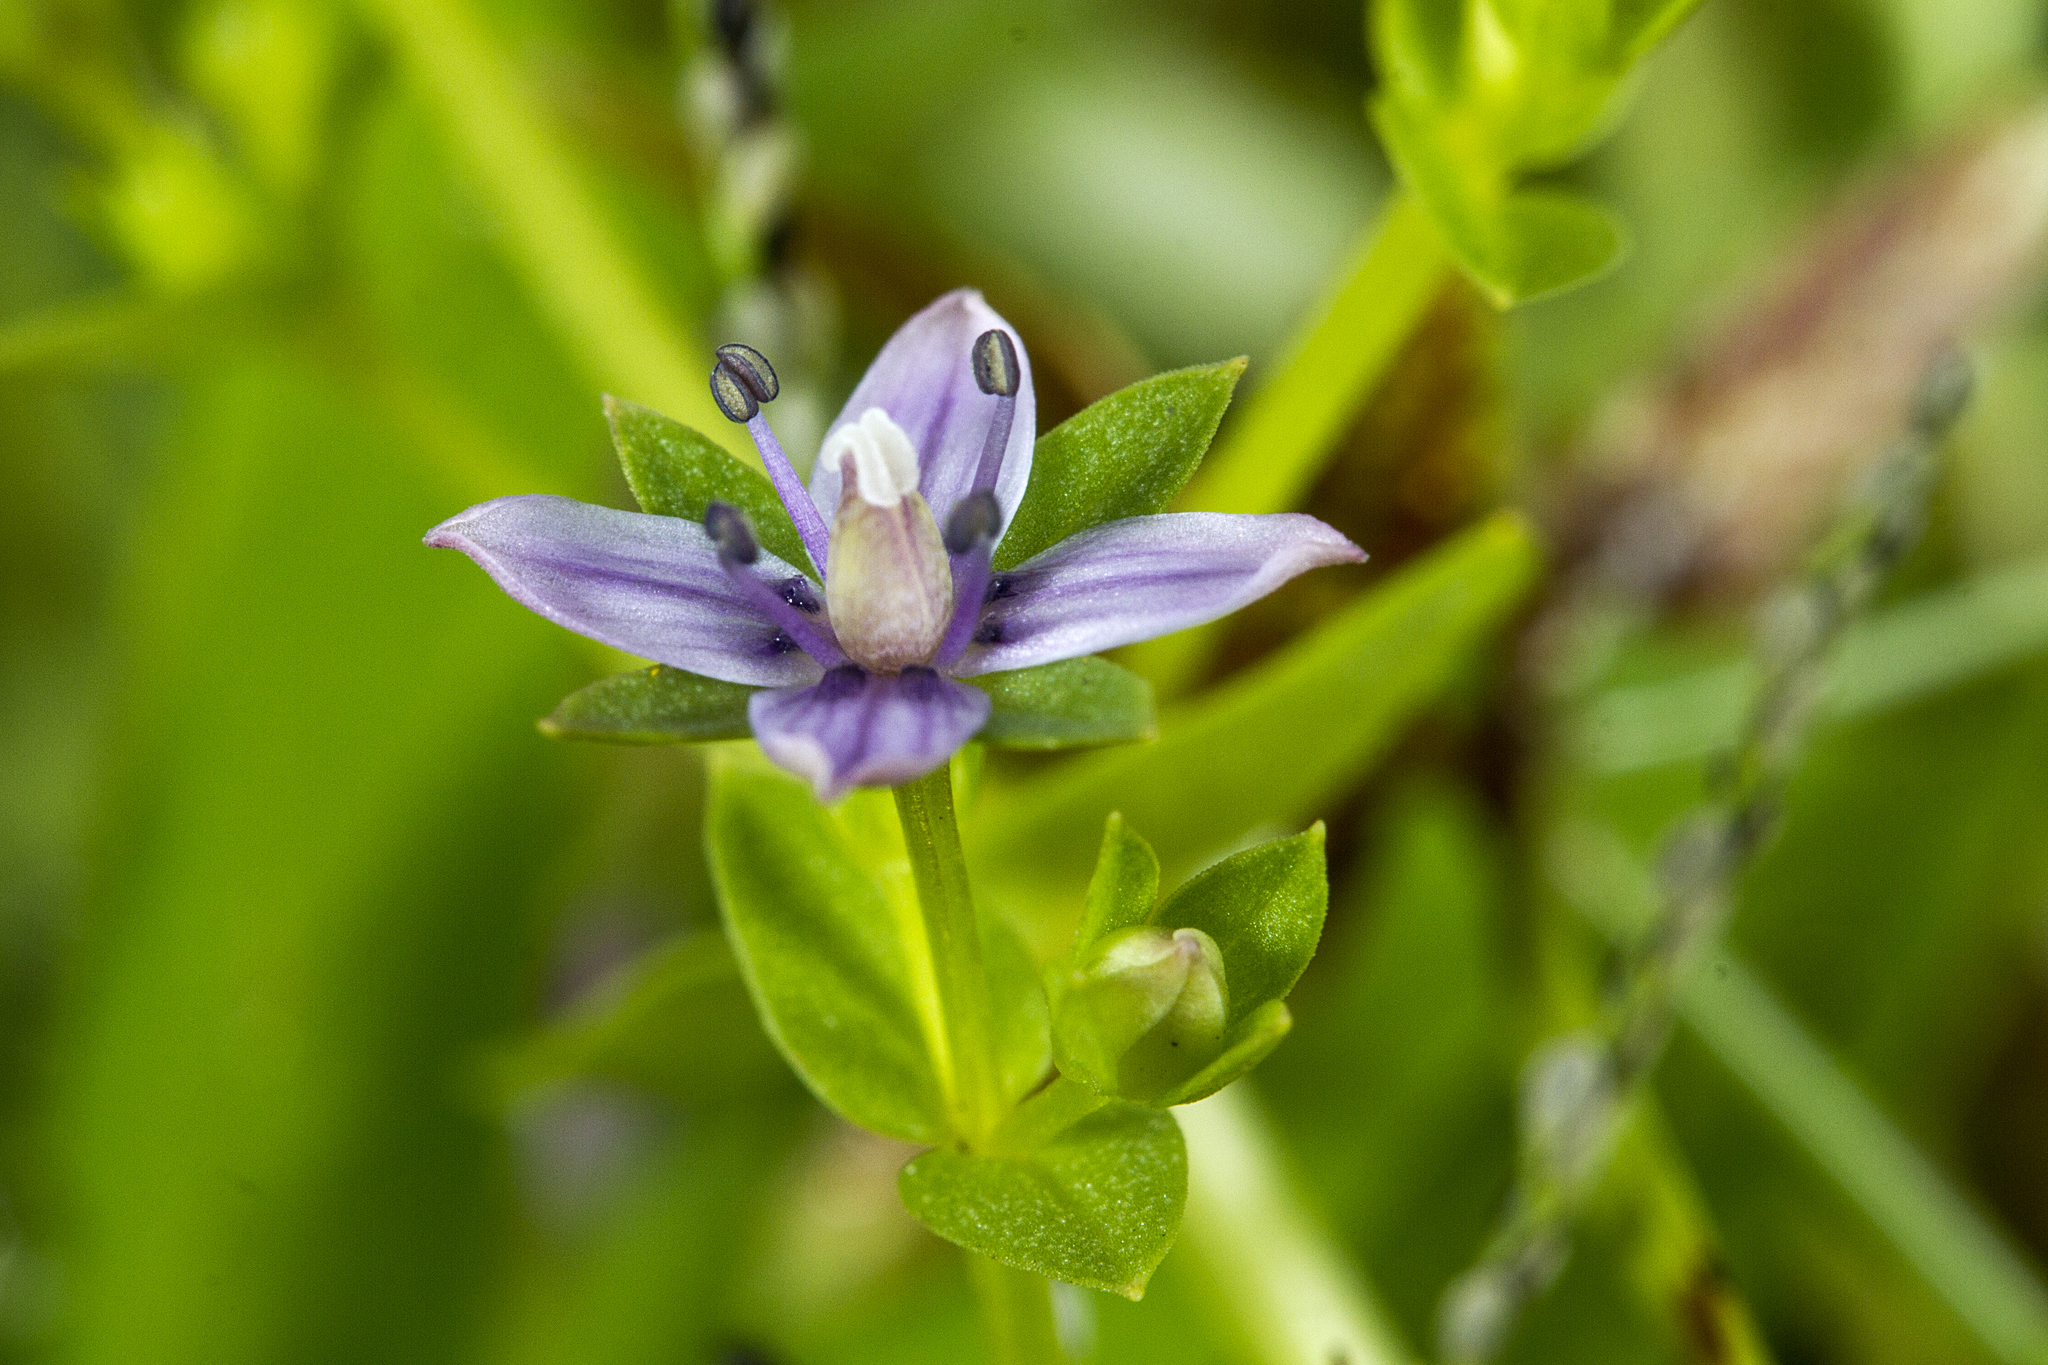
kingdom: Plantae
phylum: Tracheophyta
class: Magnoliopsida
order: Gentianales
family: Gentianaceae
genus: Lomatogonium
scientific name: Lomatogonium minus
